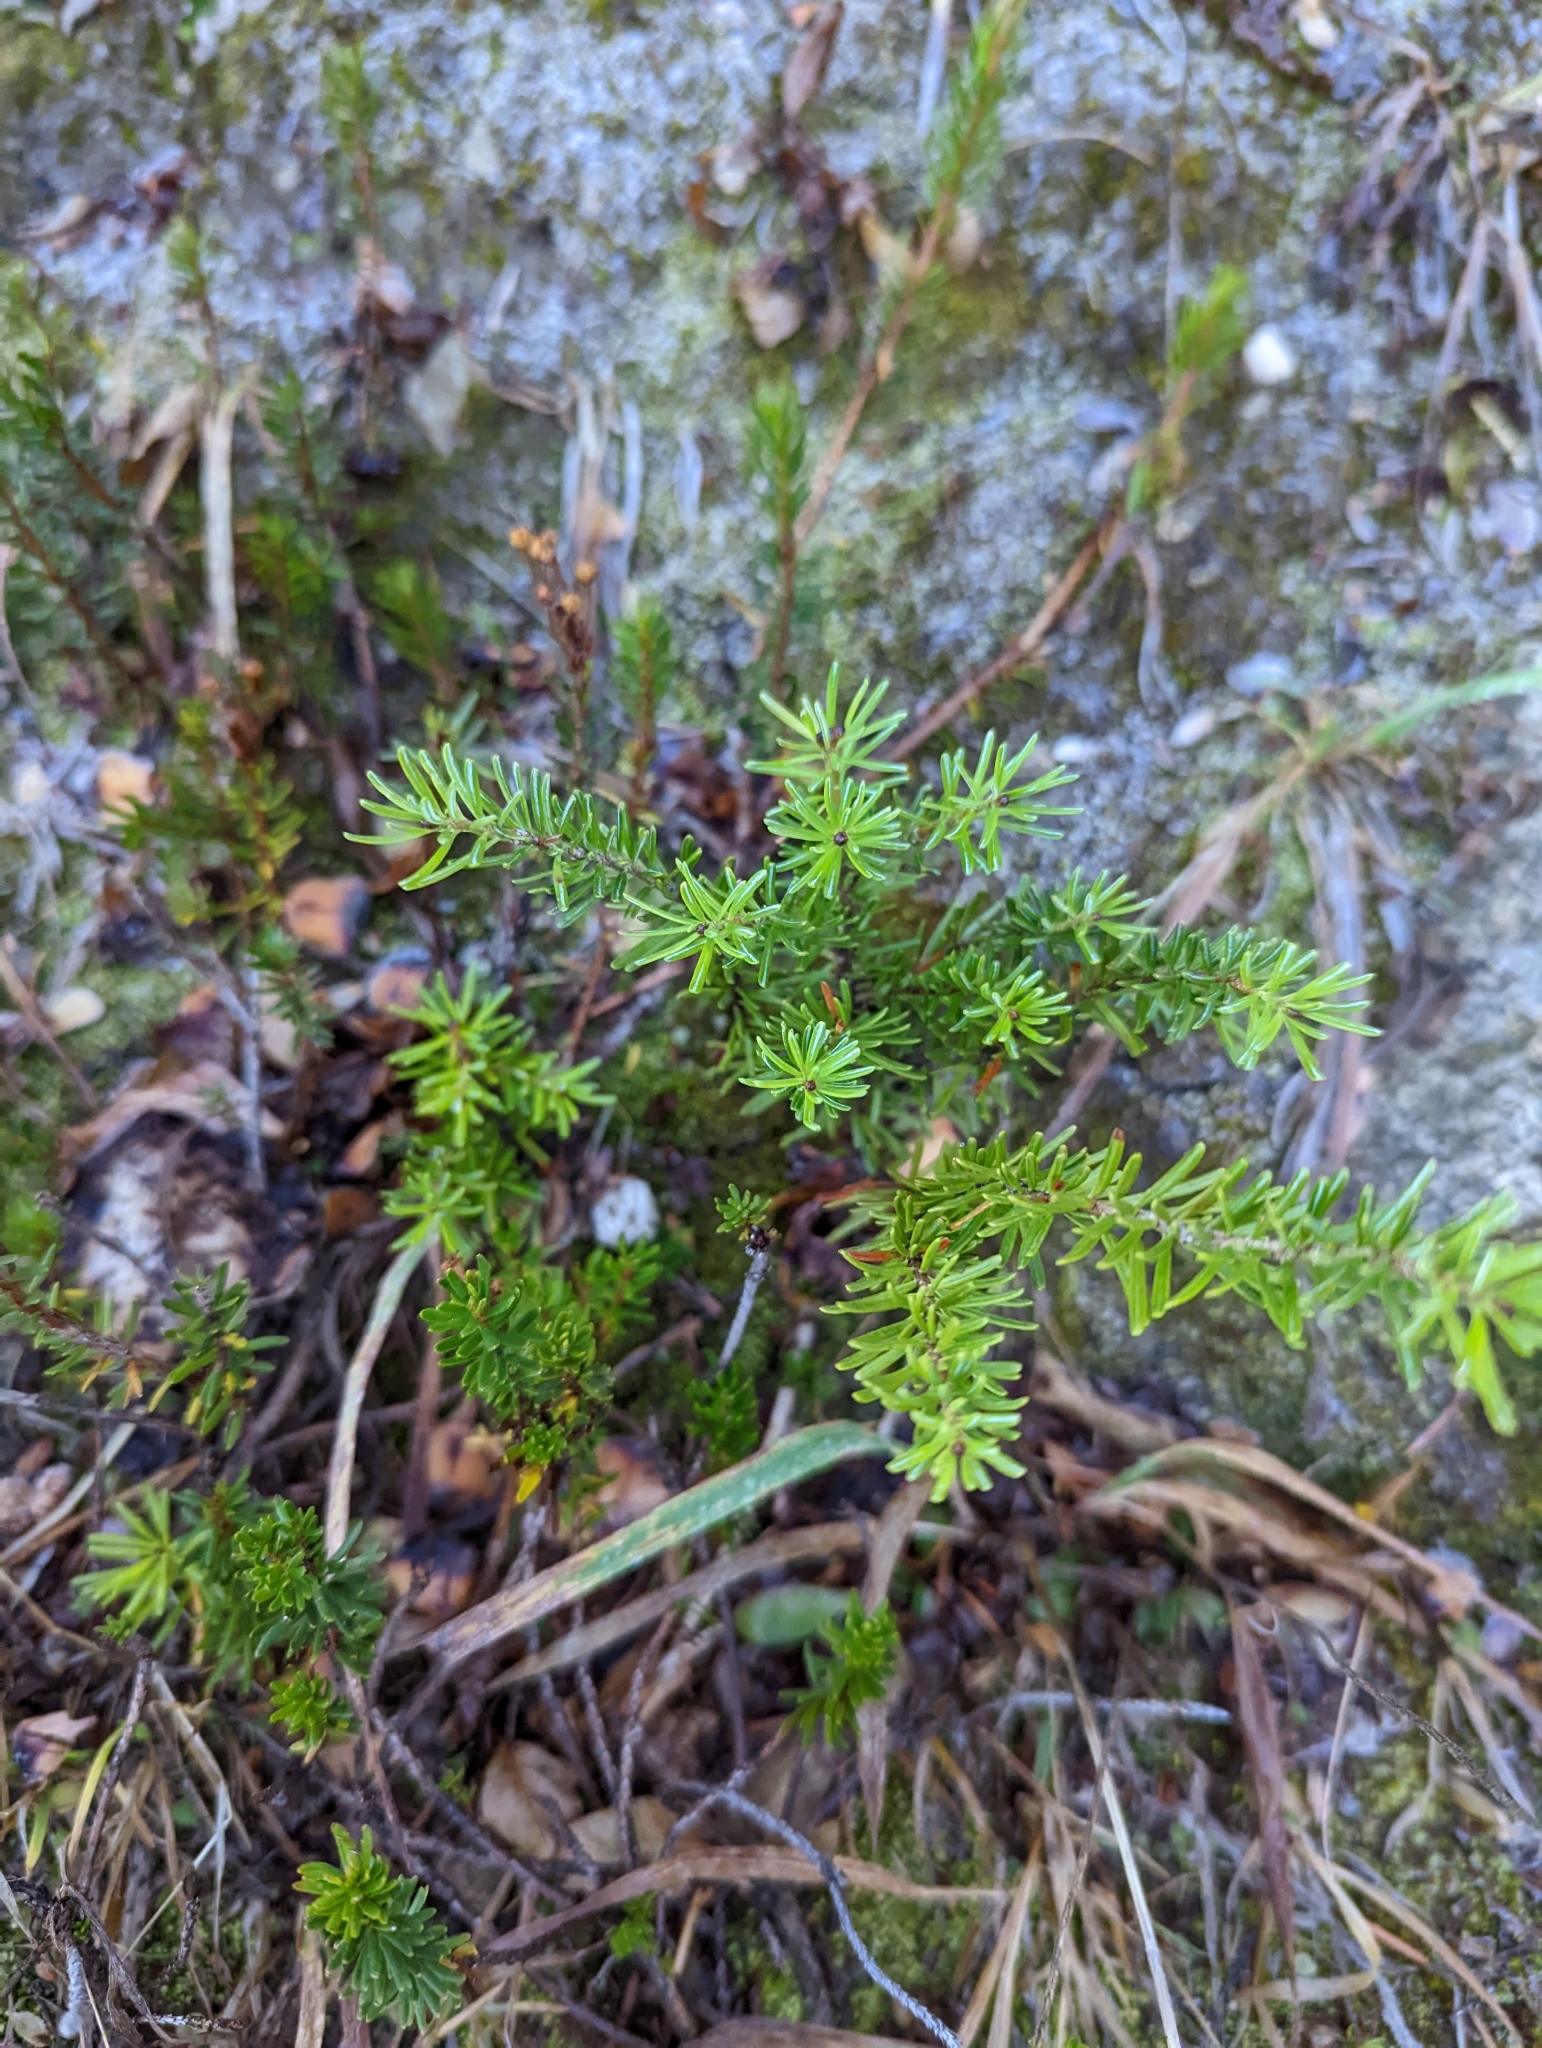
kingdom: Plantae
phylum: Tracheophyta
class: Magnoliopsida
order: Ericales
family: Ericaceae
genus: Phyllodoce
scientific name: Phyllodoce empetriformis
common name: Pink mountain heather
